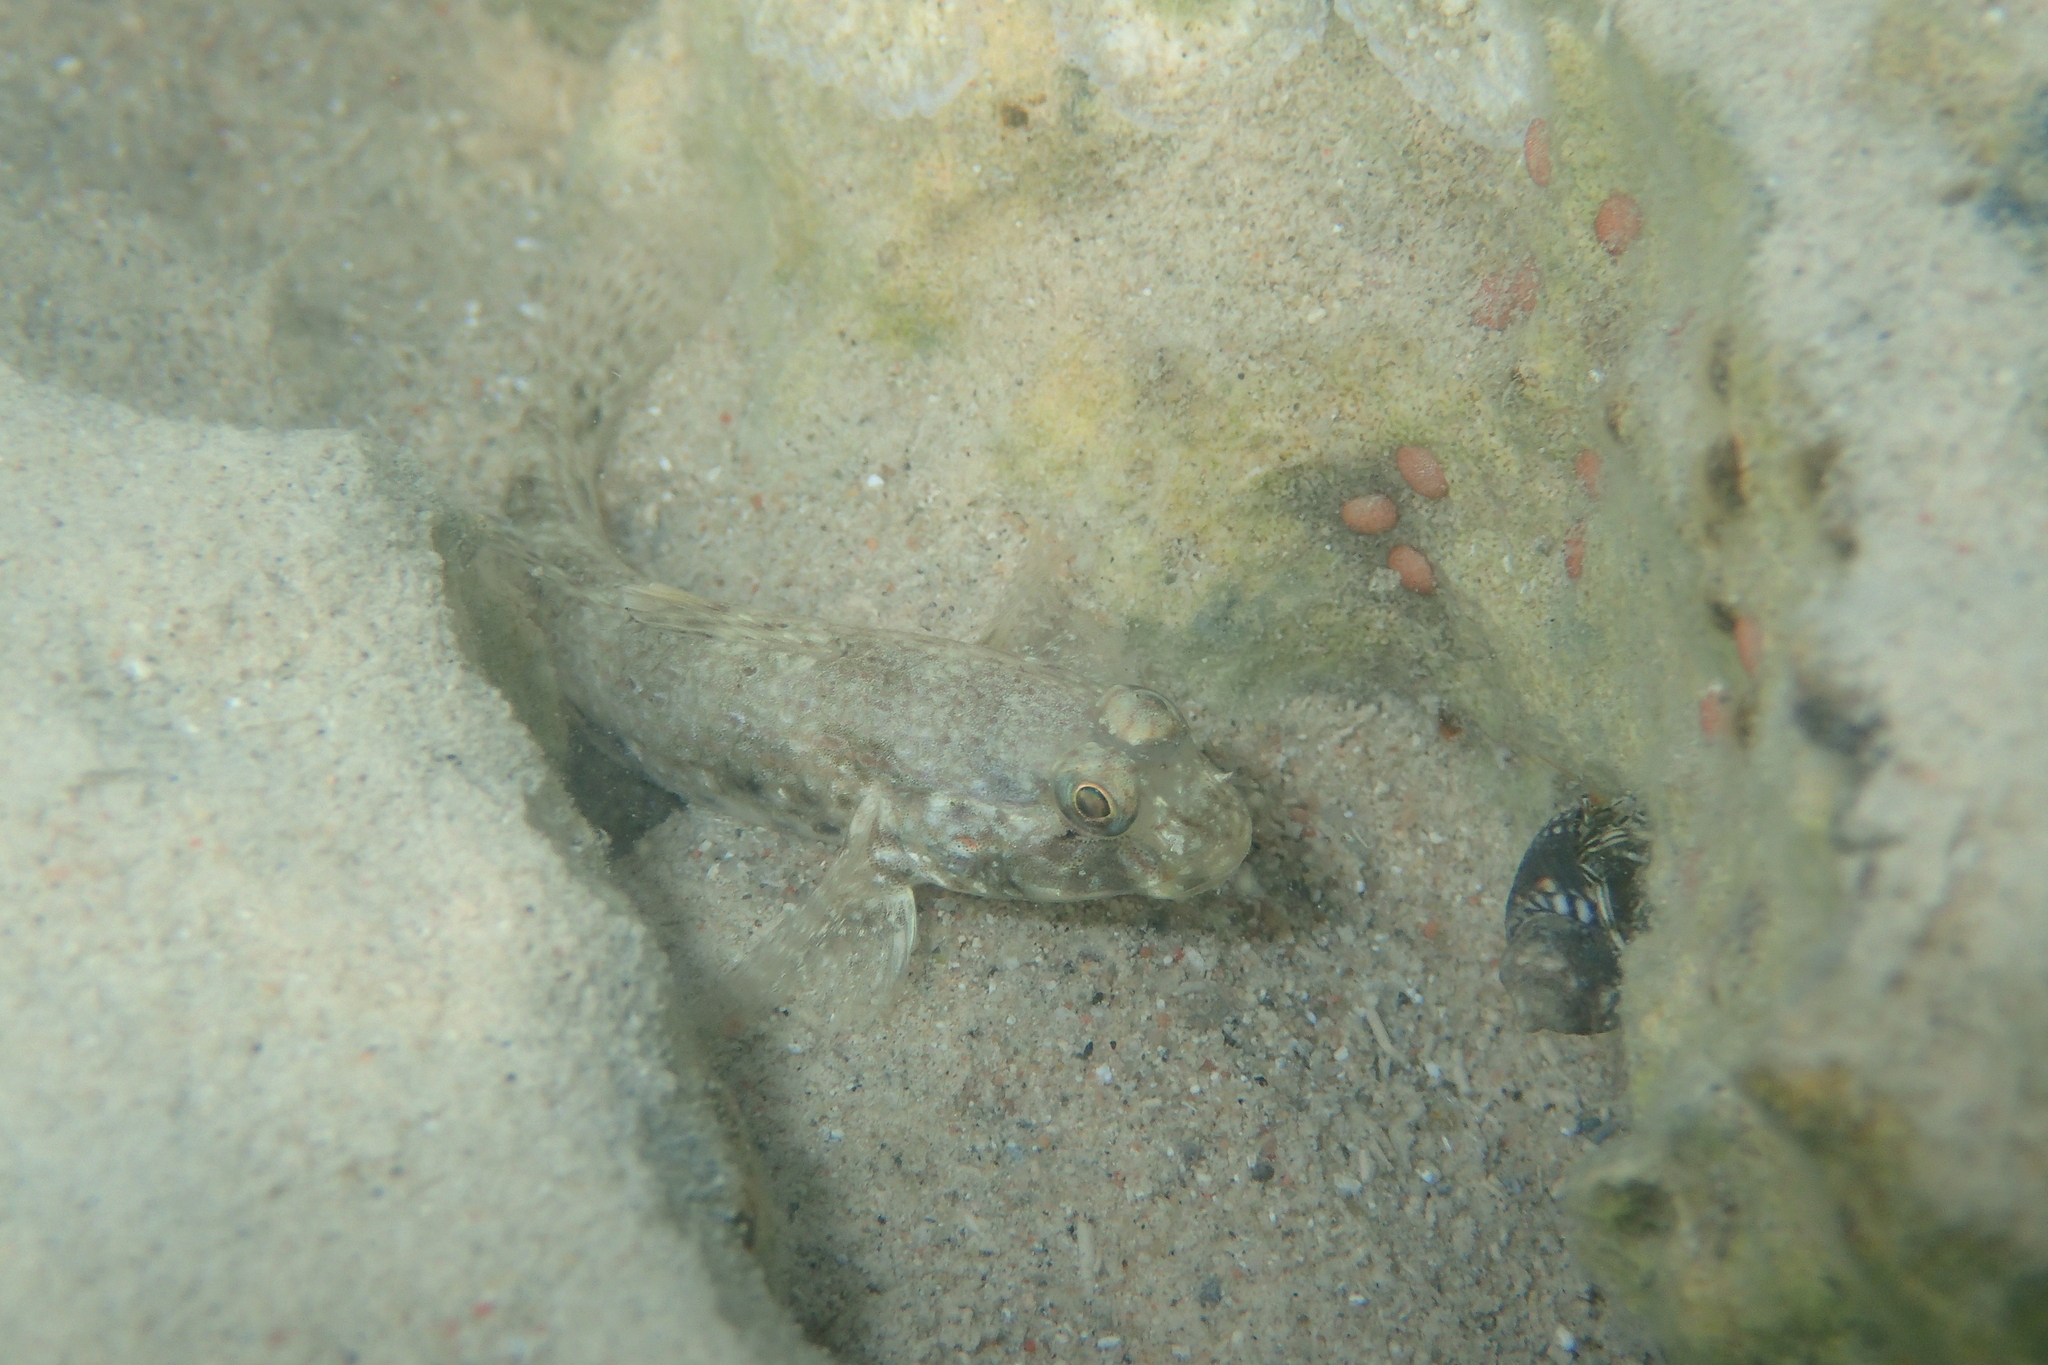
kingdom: Animalia
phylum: Chordata
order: Perciformes
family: Gobiidae
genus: Istigobius
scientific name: Istigobius ornatus
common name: Ornate goby
